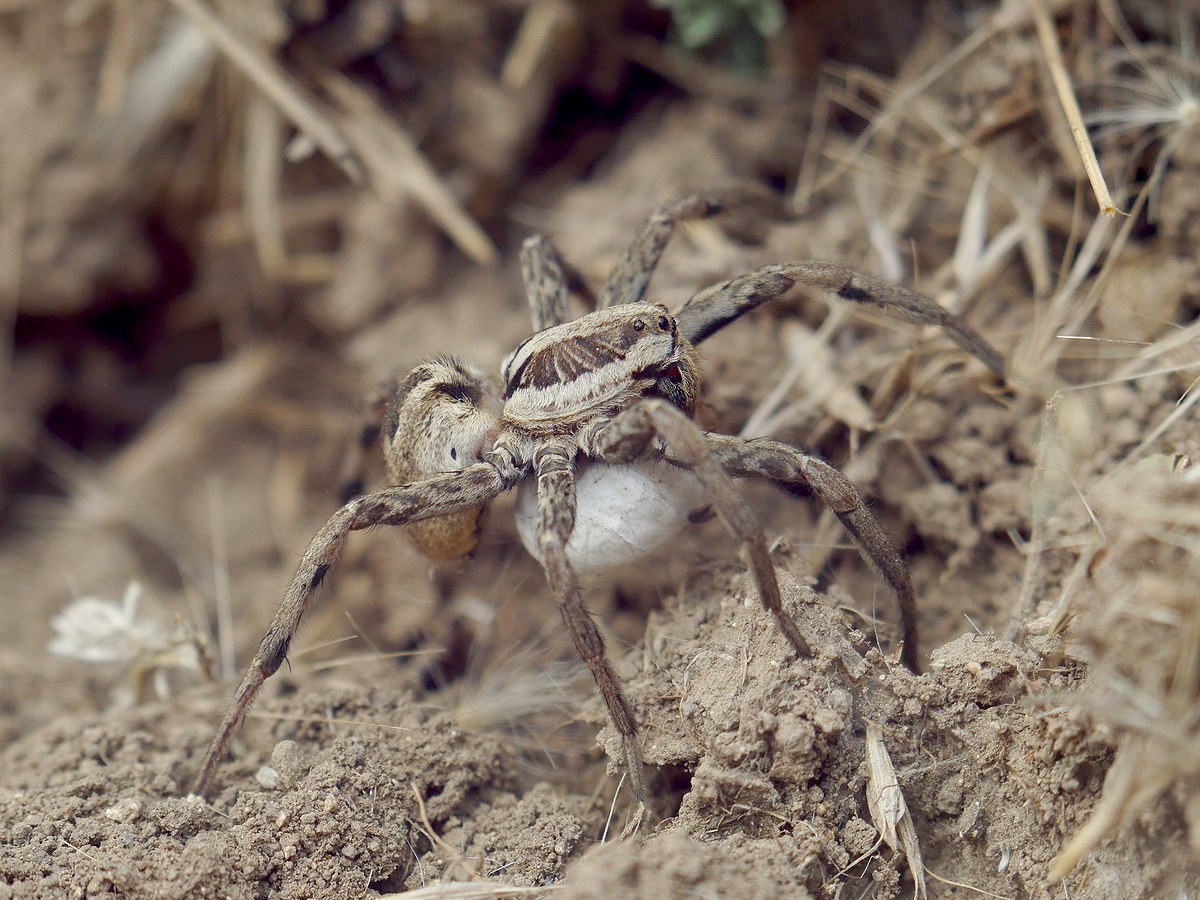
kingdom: Animalia
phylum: Arthropoda
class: Arachnida
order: Araneae
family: Lycosidae
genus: Hogna
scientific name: Hogna radiata
